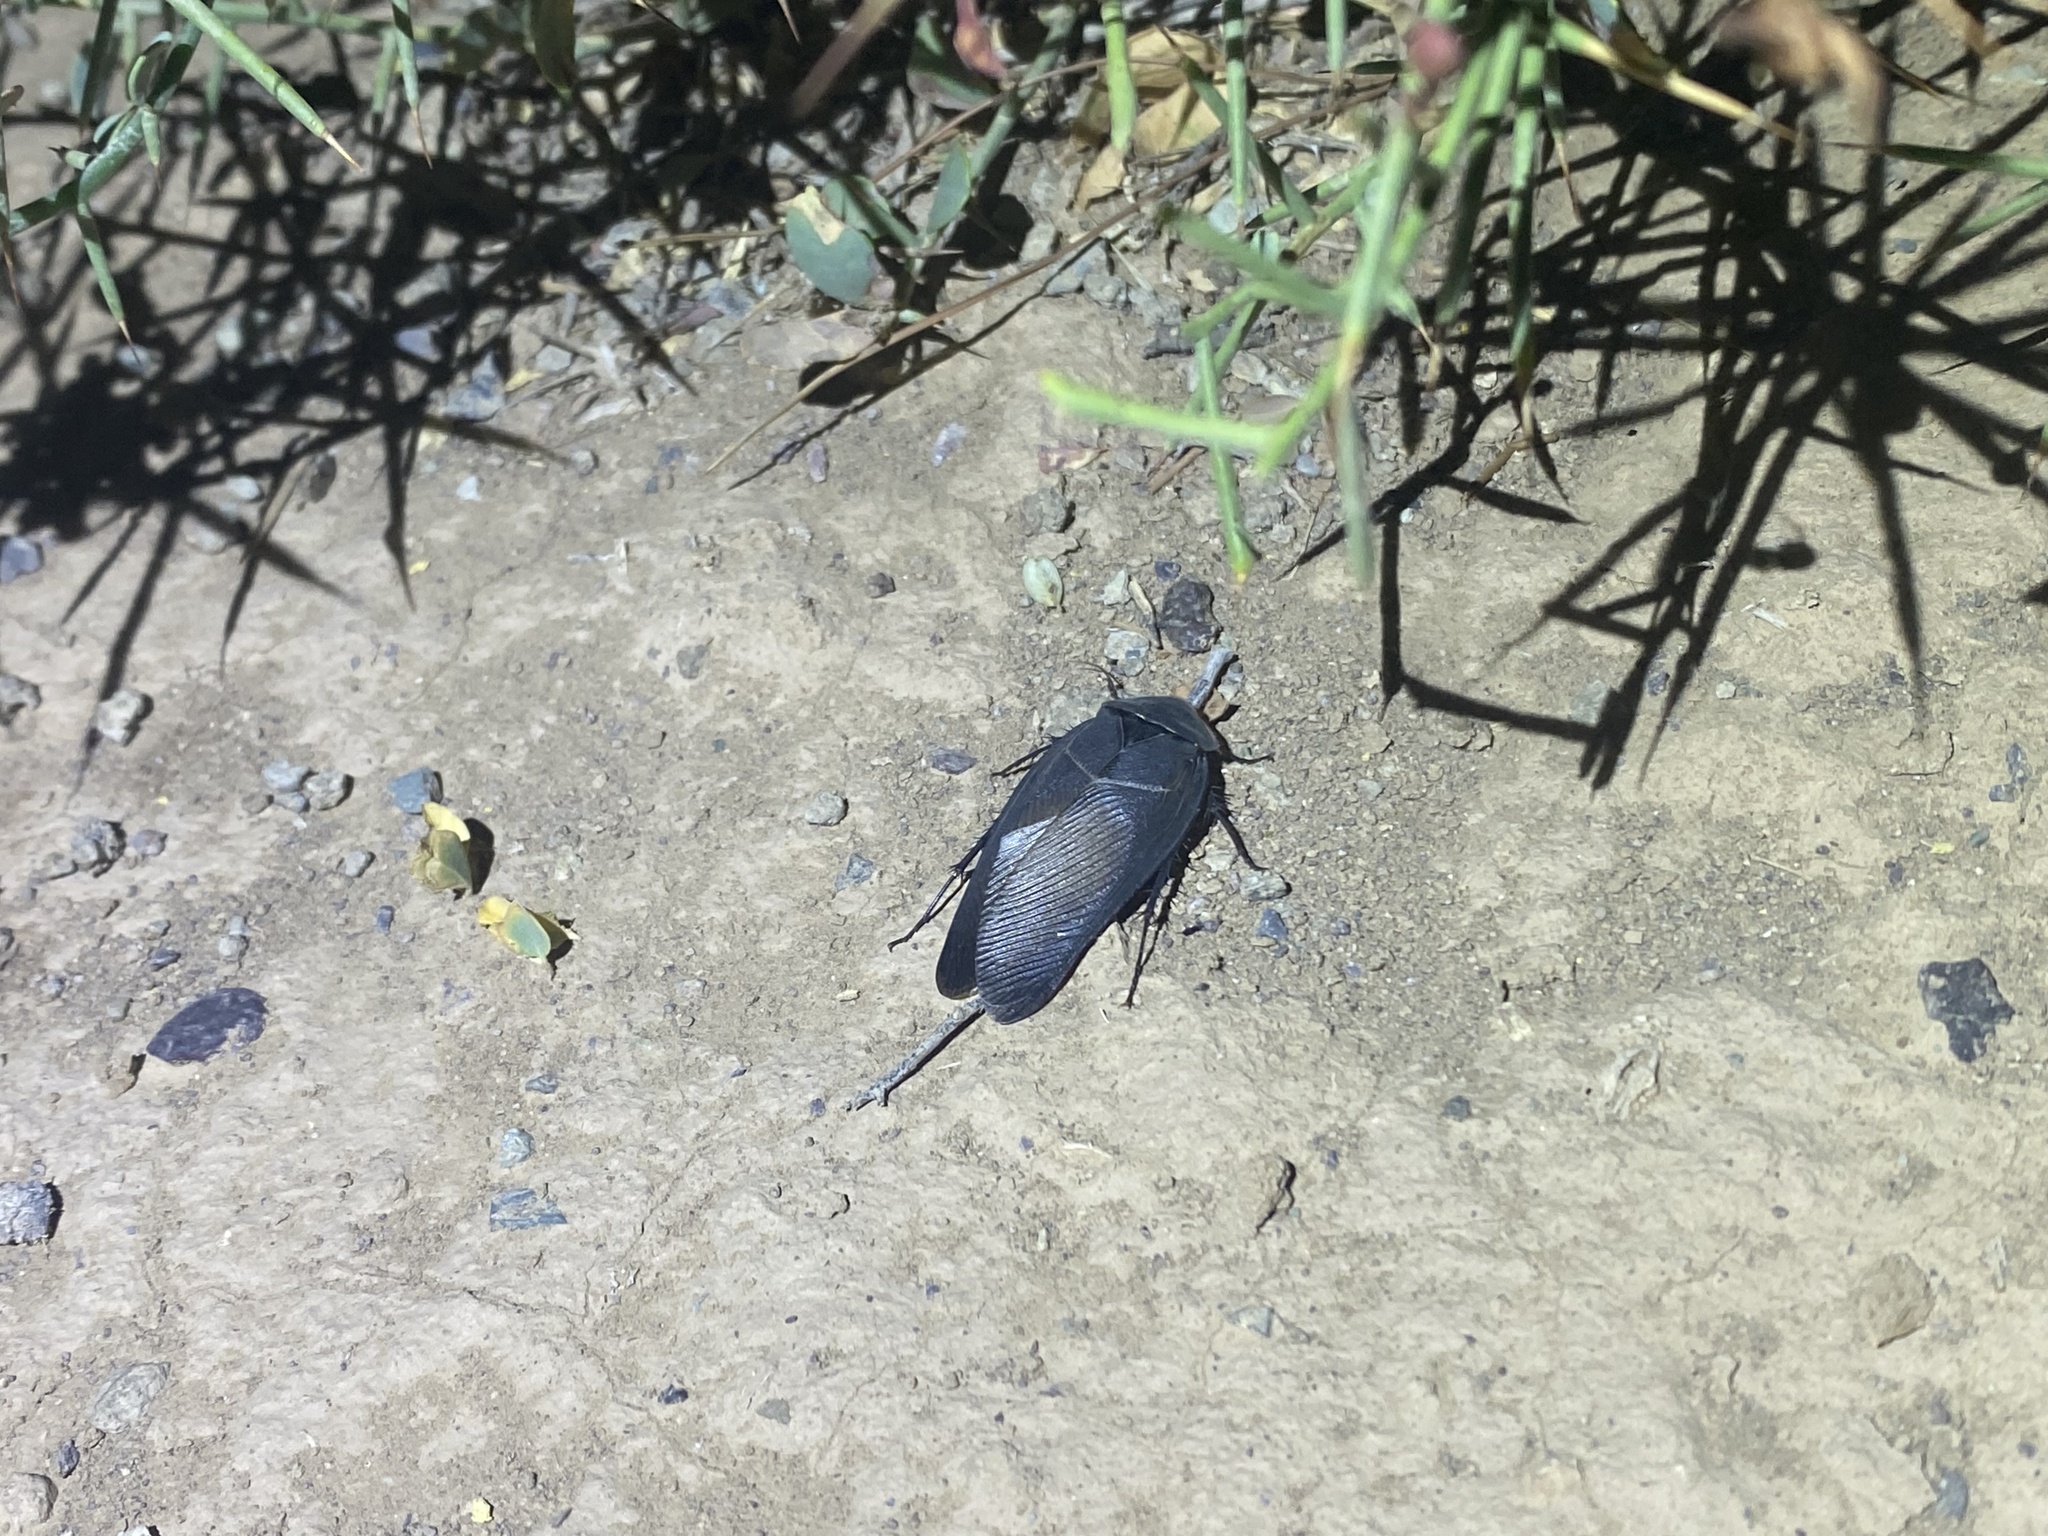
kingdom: Animalia
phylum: Arthropoda
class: Insecta
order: Blattodea
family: Corydiidae
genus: Polyphaga
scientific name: Polyphaga aegyptiaca
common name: Egyptian cockroach
